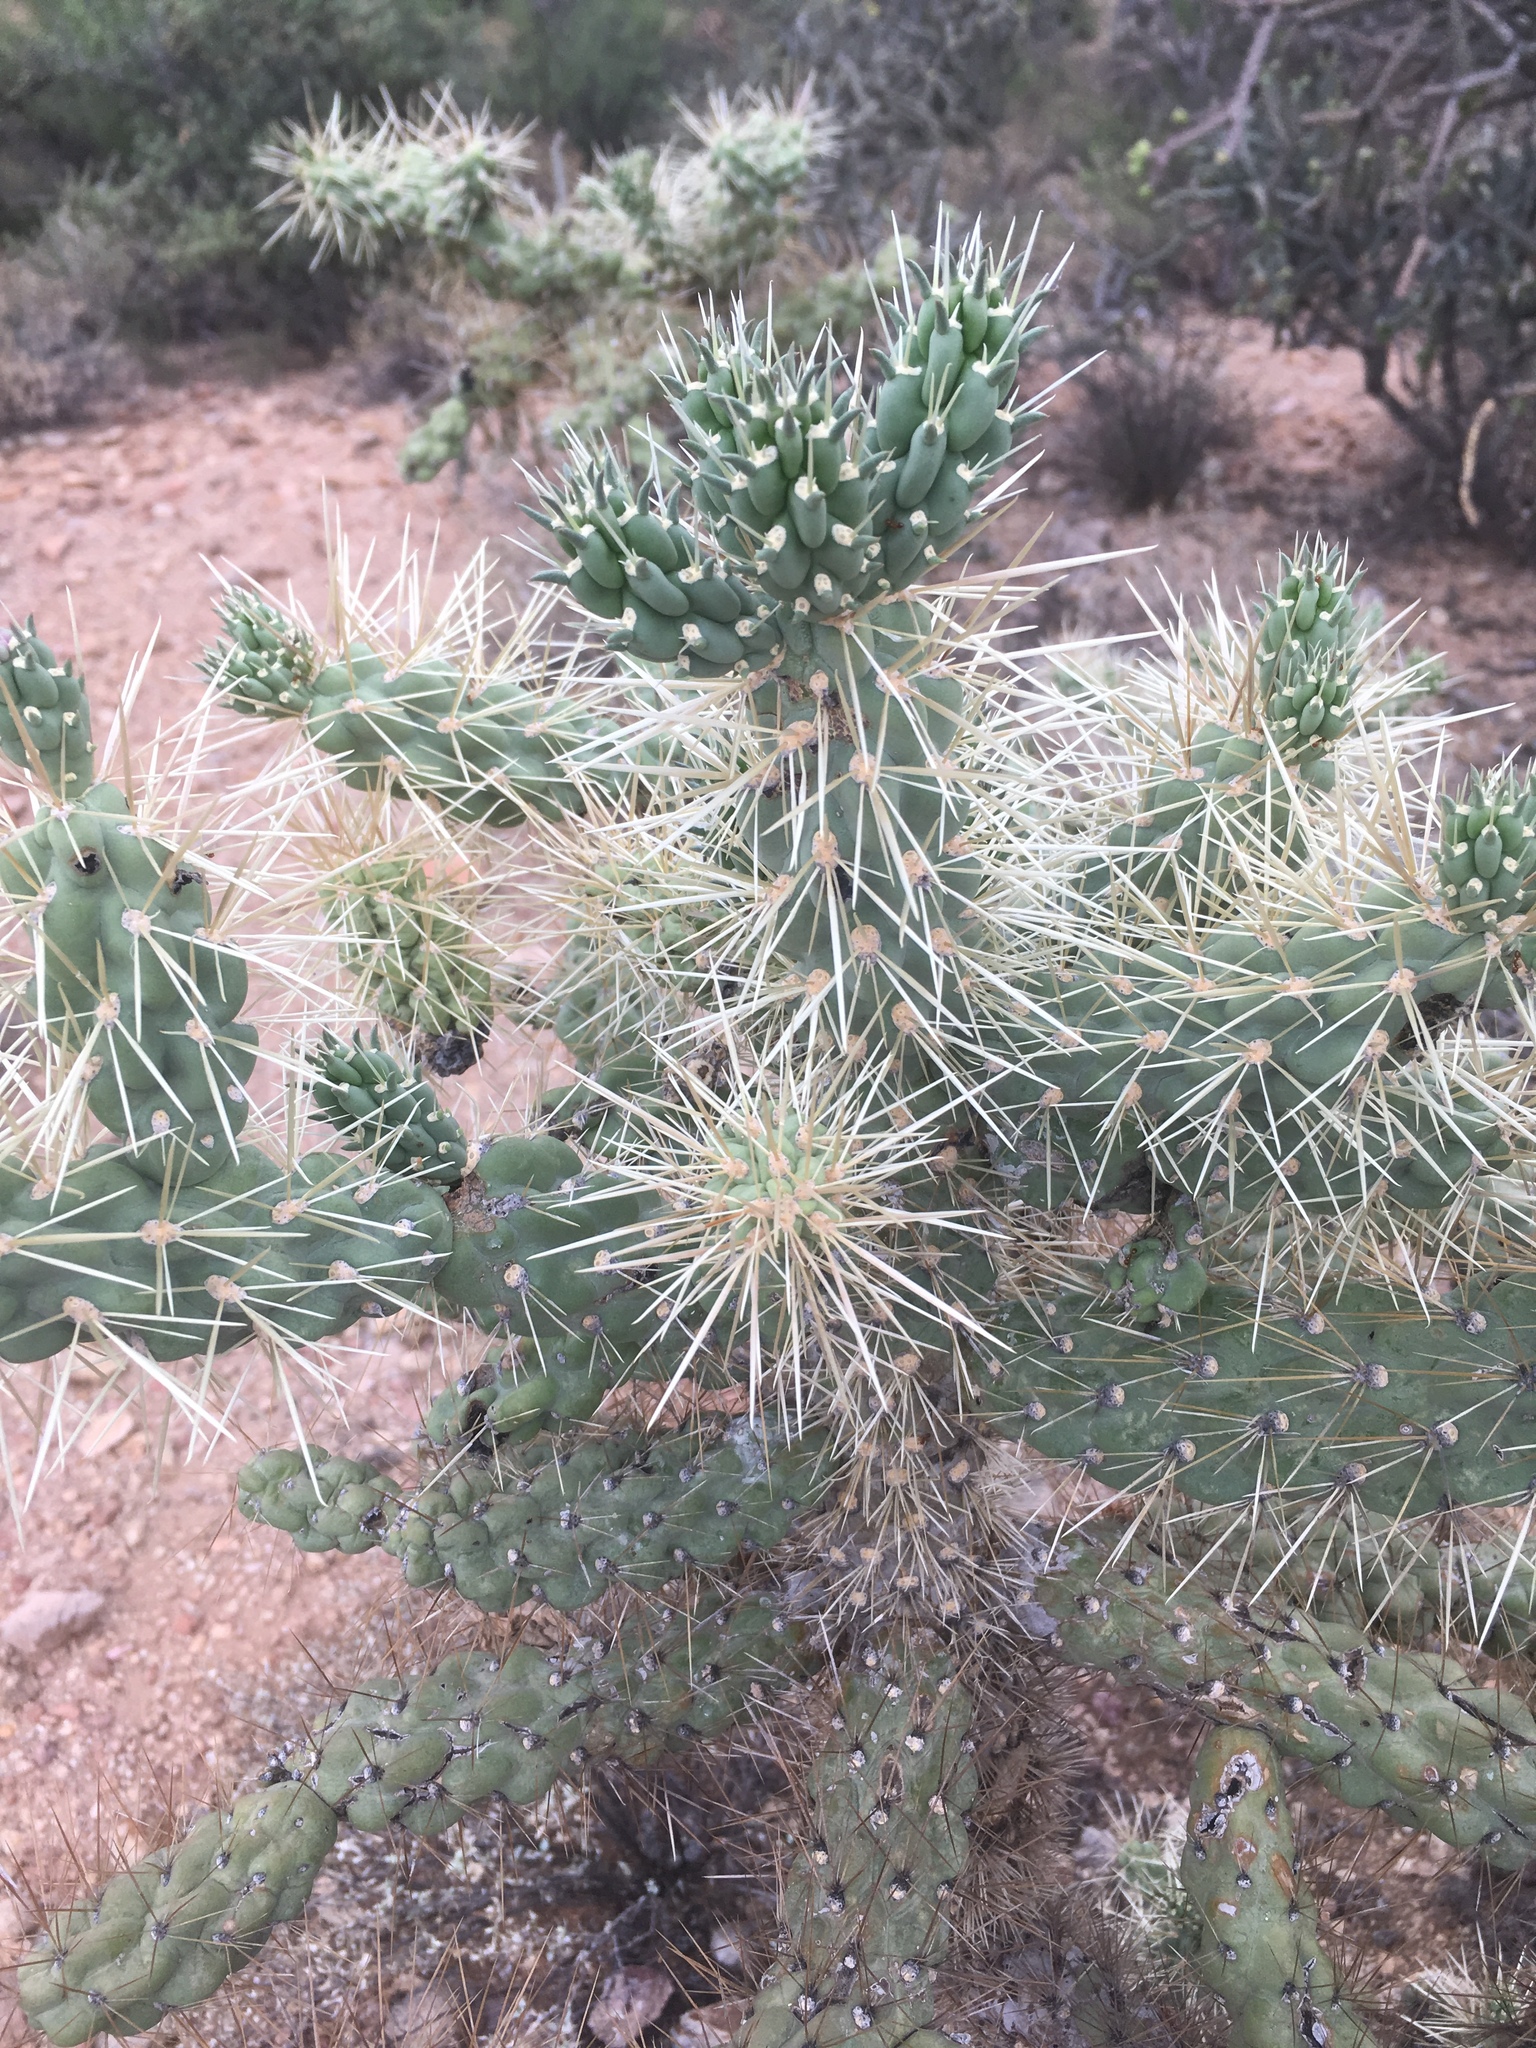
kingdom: Plantae
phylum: Tracheophyta
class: Magnoliopsida
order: Caryophyllales
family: Cactaceae
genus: Cylindropuntia
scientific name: Cylindropuntia fulgida
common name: Jumping cholla
